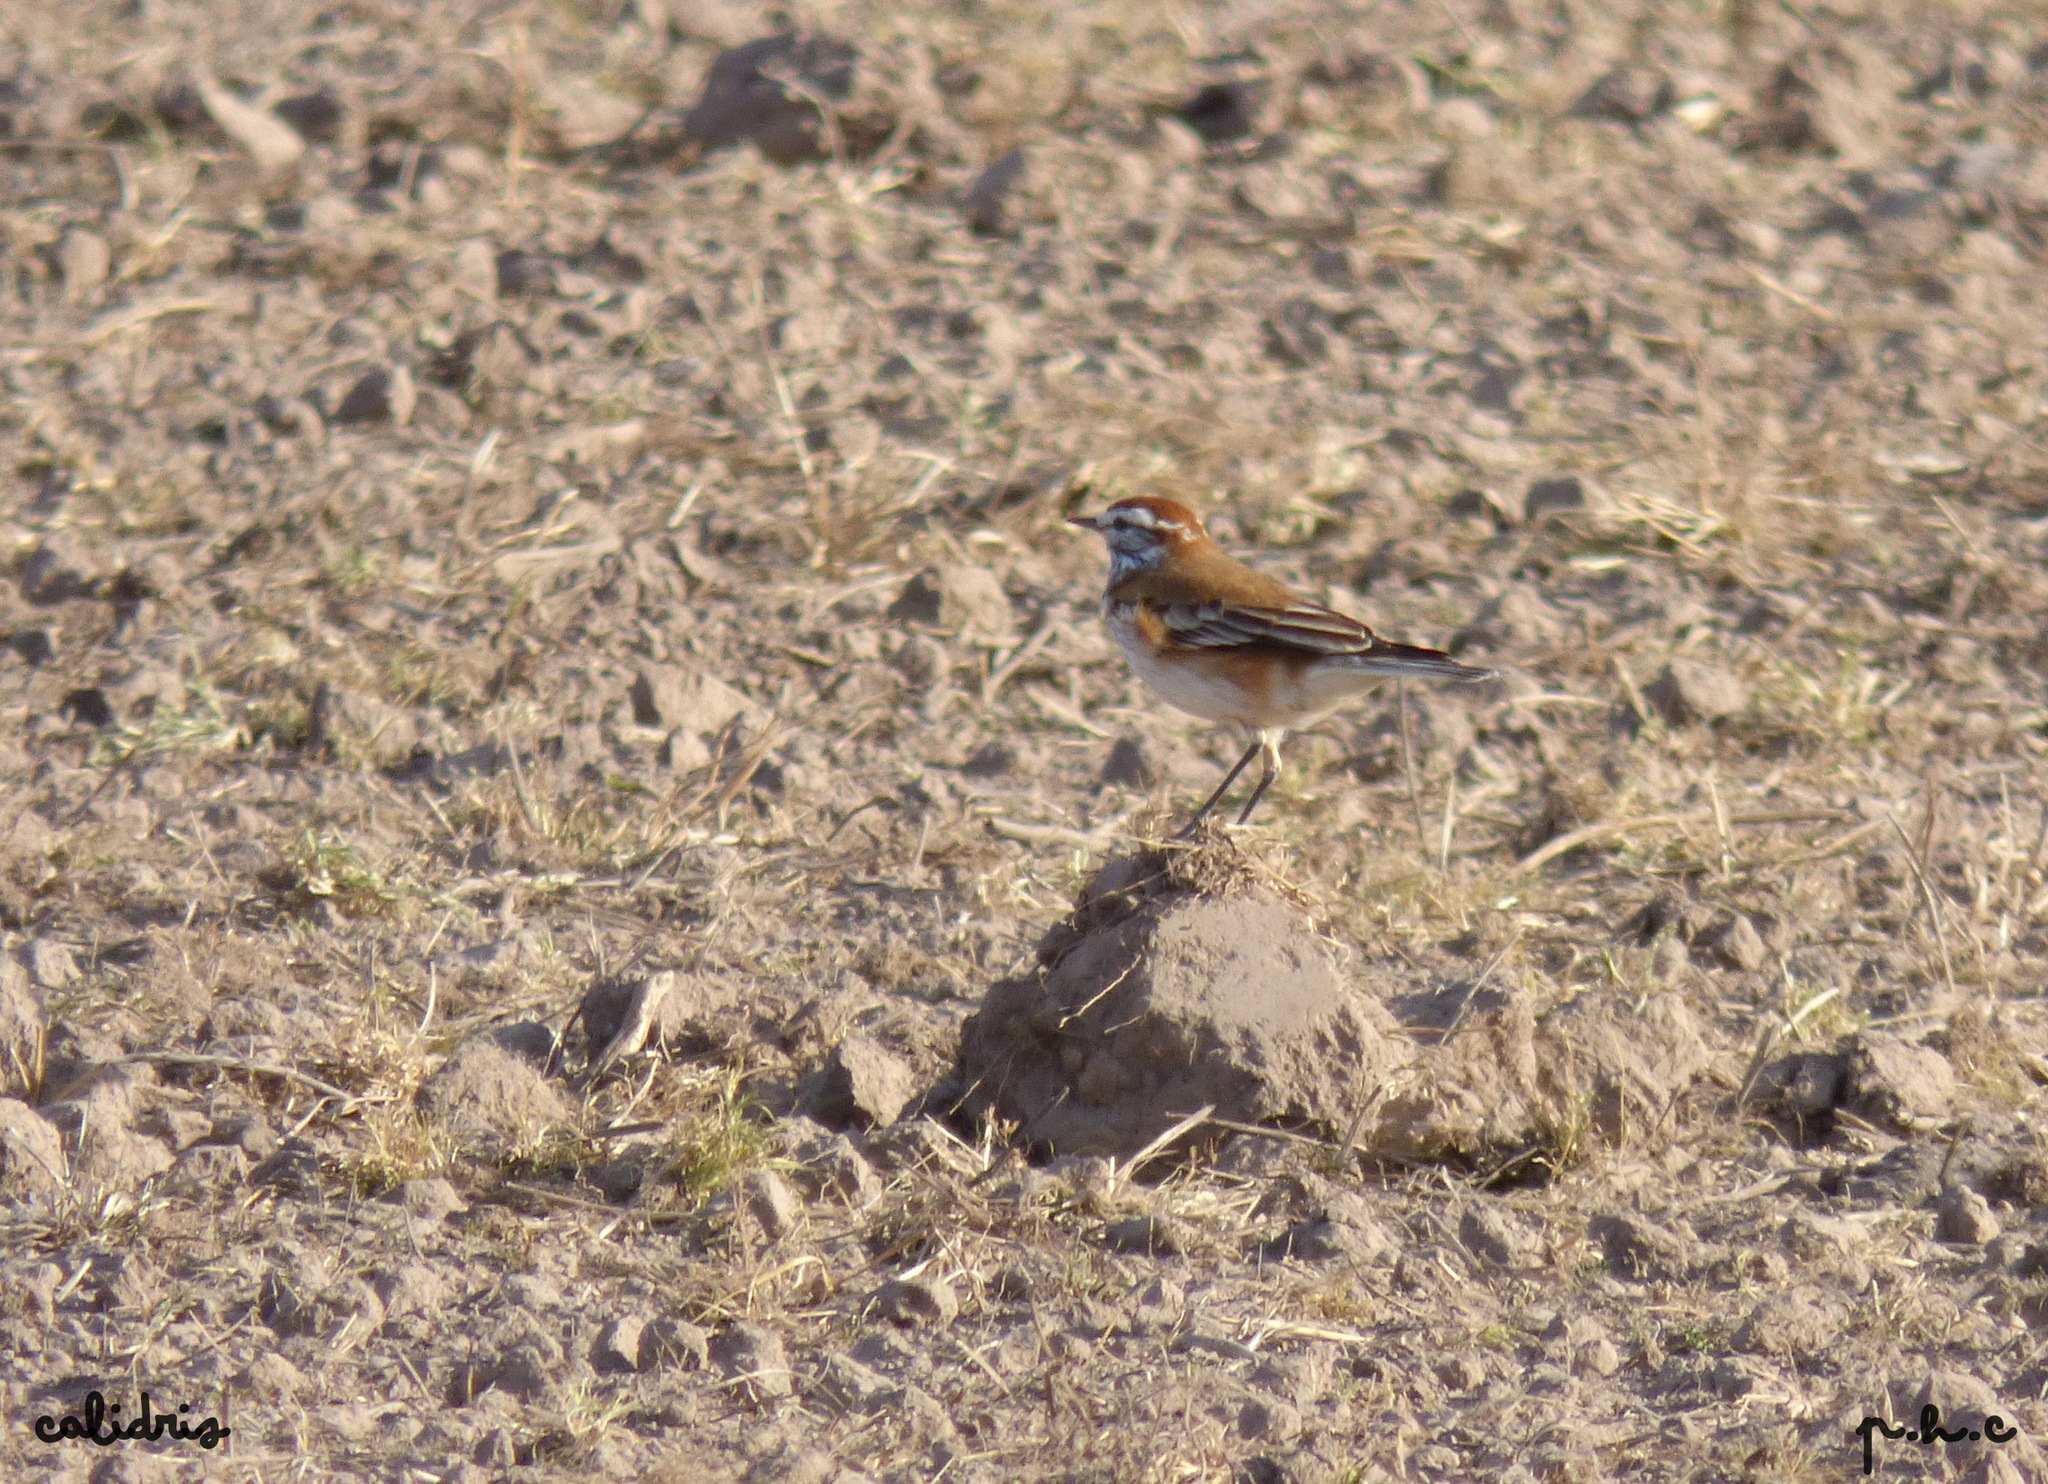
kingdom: Animalia
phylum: Chordata
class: Aves
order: Passeriformes
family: Tyrannidae
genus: Xolmis
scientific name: Xolmis rubetra
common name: Rusty-backed monjita
